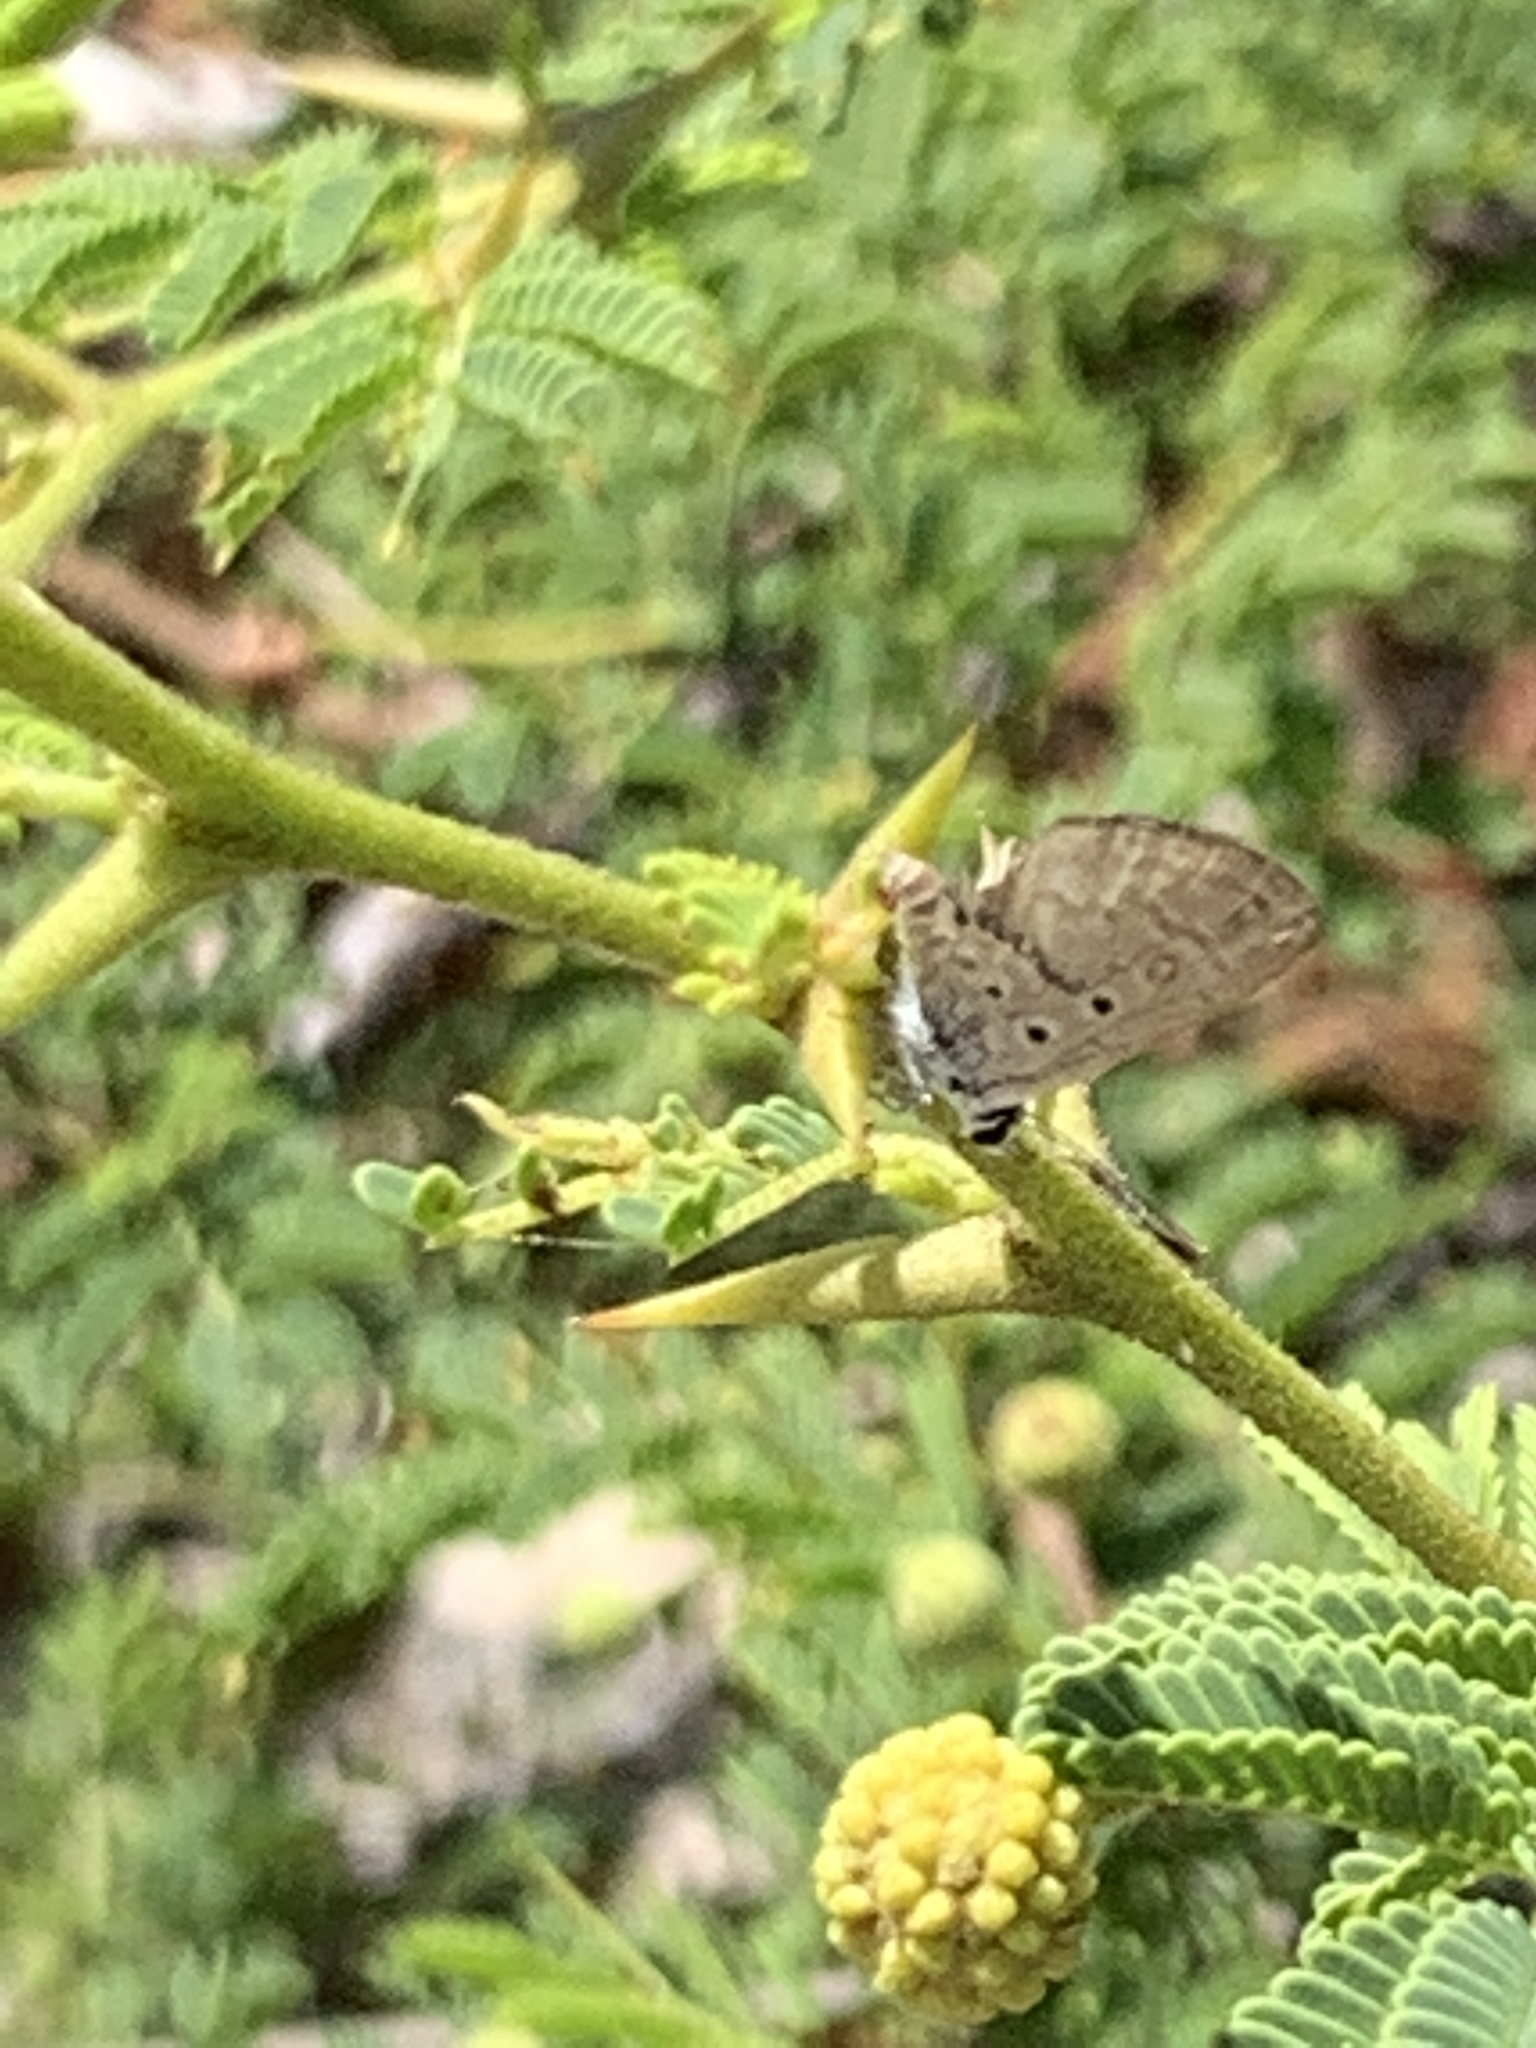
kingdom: Animalia
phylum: Arthropoda
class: Insecta
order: Lepidoptera
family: Lycaenidae
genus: Hemiargus
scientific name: Hemiargus hanno
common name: Common blue
